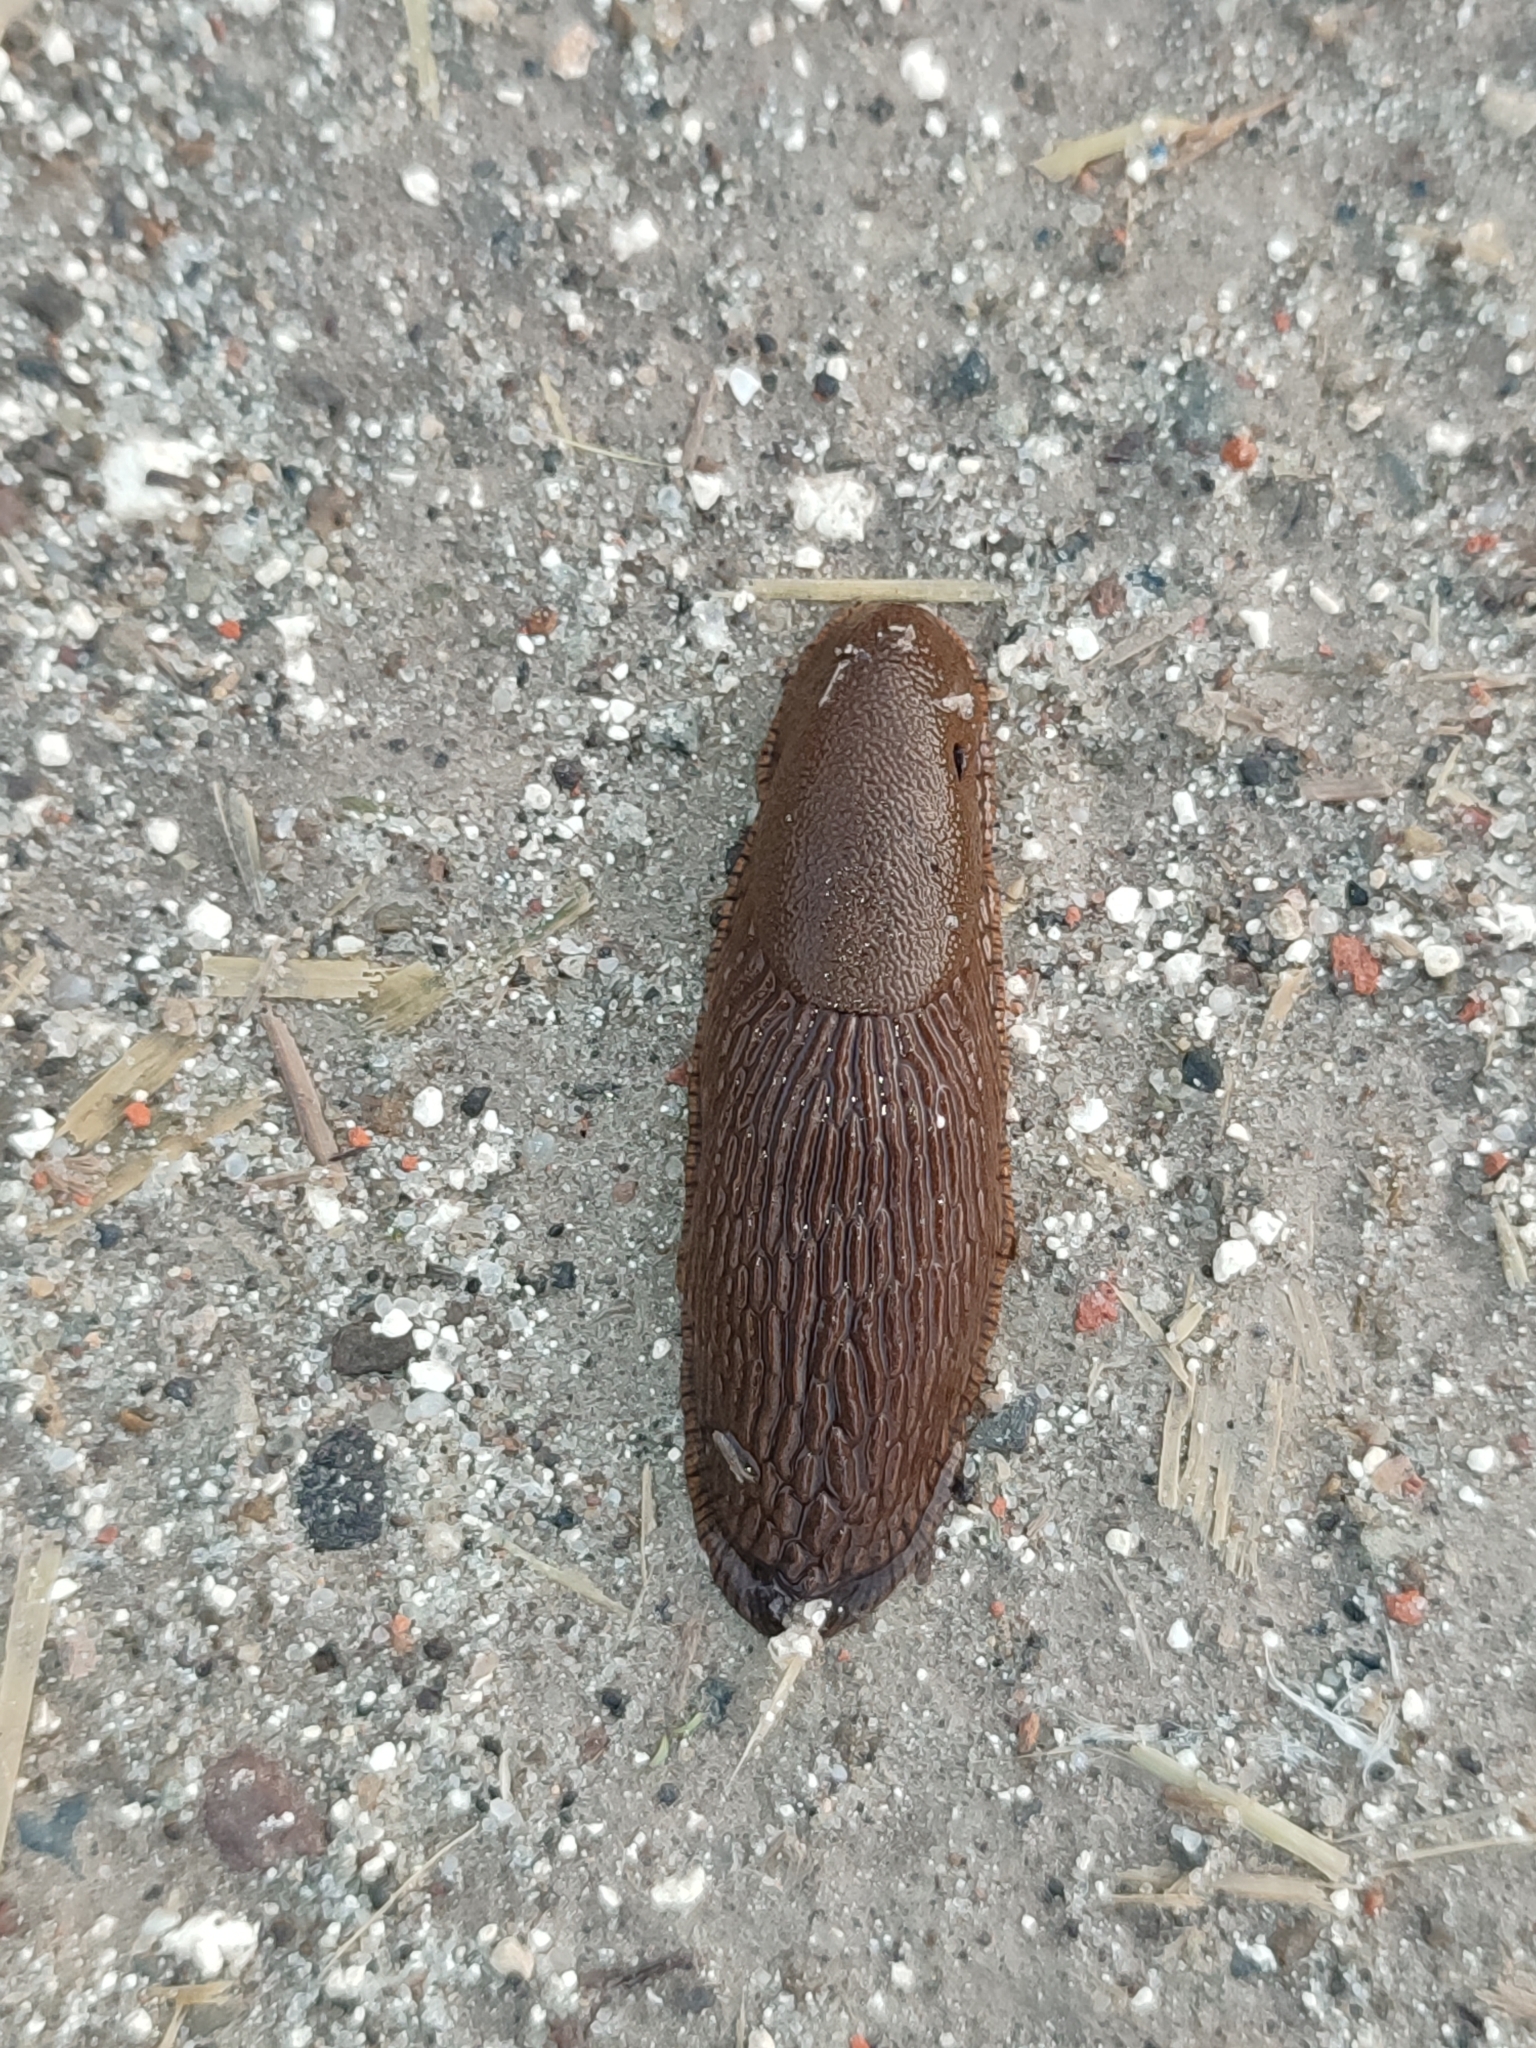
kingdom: Animalia
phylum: Mollusca
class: Gastropoda
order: Stylommatophora
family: Arionidae
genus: Arion
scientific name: Arion vulgaris
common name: Lusitanian slug
